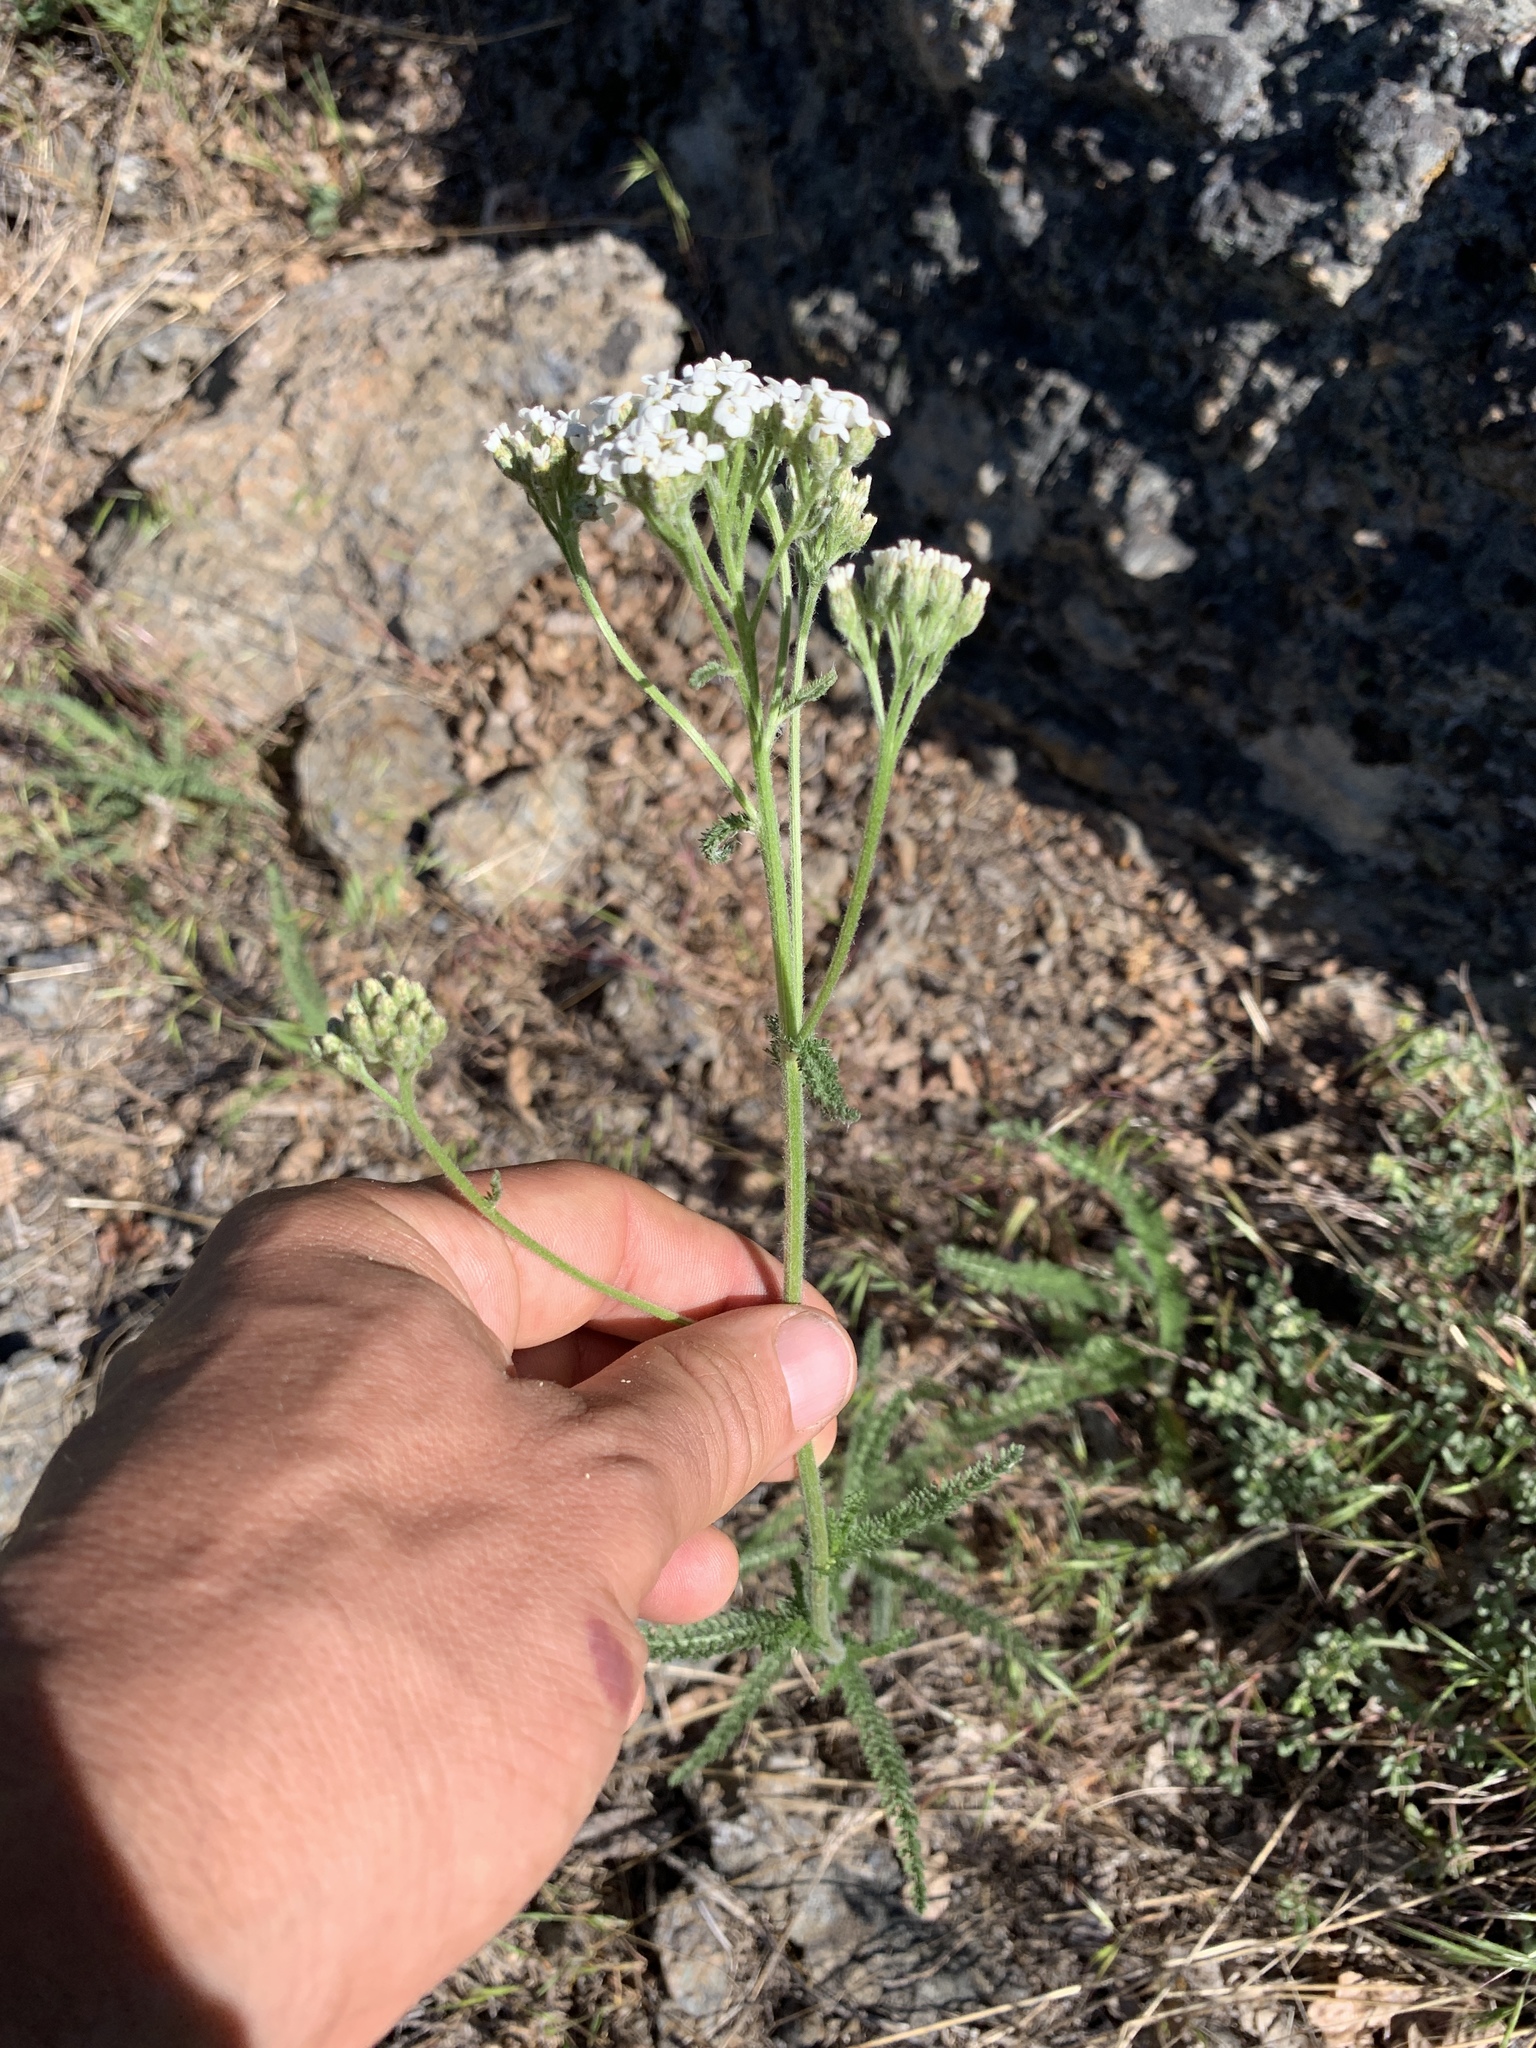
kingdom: Plantae
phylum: Tracheophyta
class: Magnoliopsida
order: Asterales
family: Asteraceae
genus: Achillea
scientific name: Achillea millefolium
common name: Yarrow
